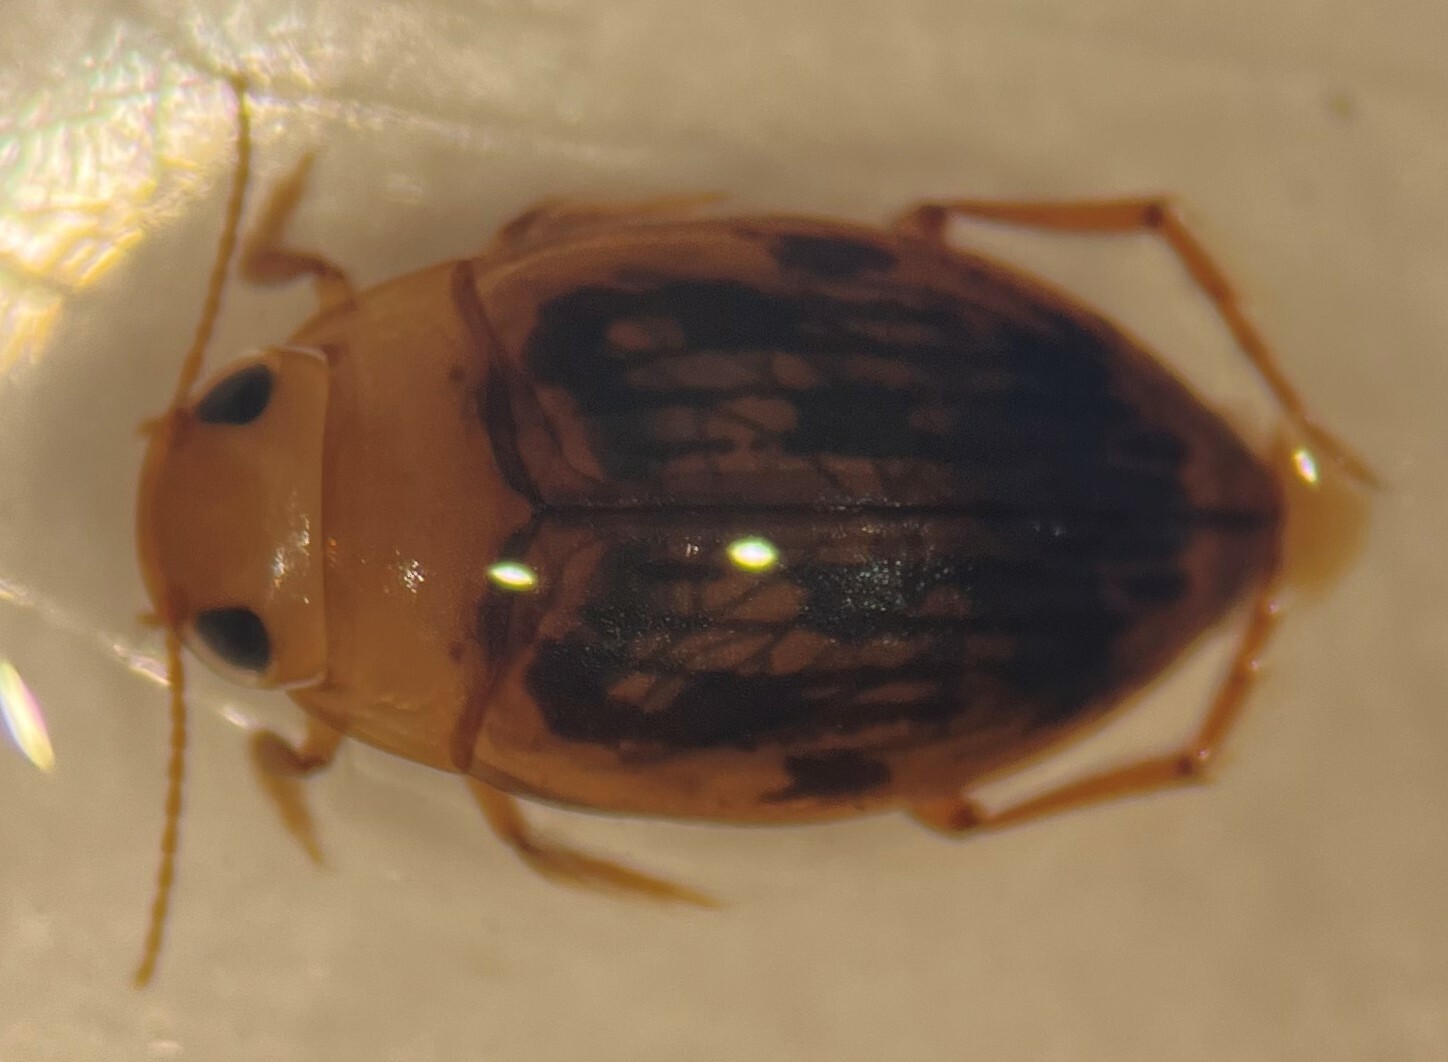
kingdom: Animalia
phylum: Arthropoda
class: Insecta
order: Coleoptera
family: Dytiscidae
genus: Neoporus
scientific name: Neoporus dimidiatus
